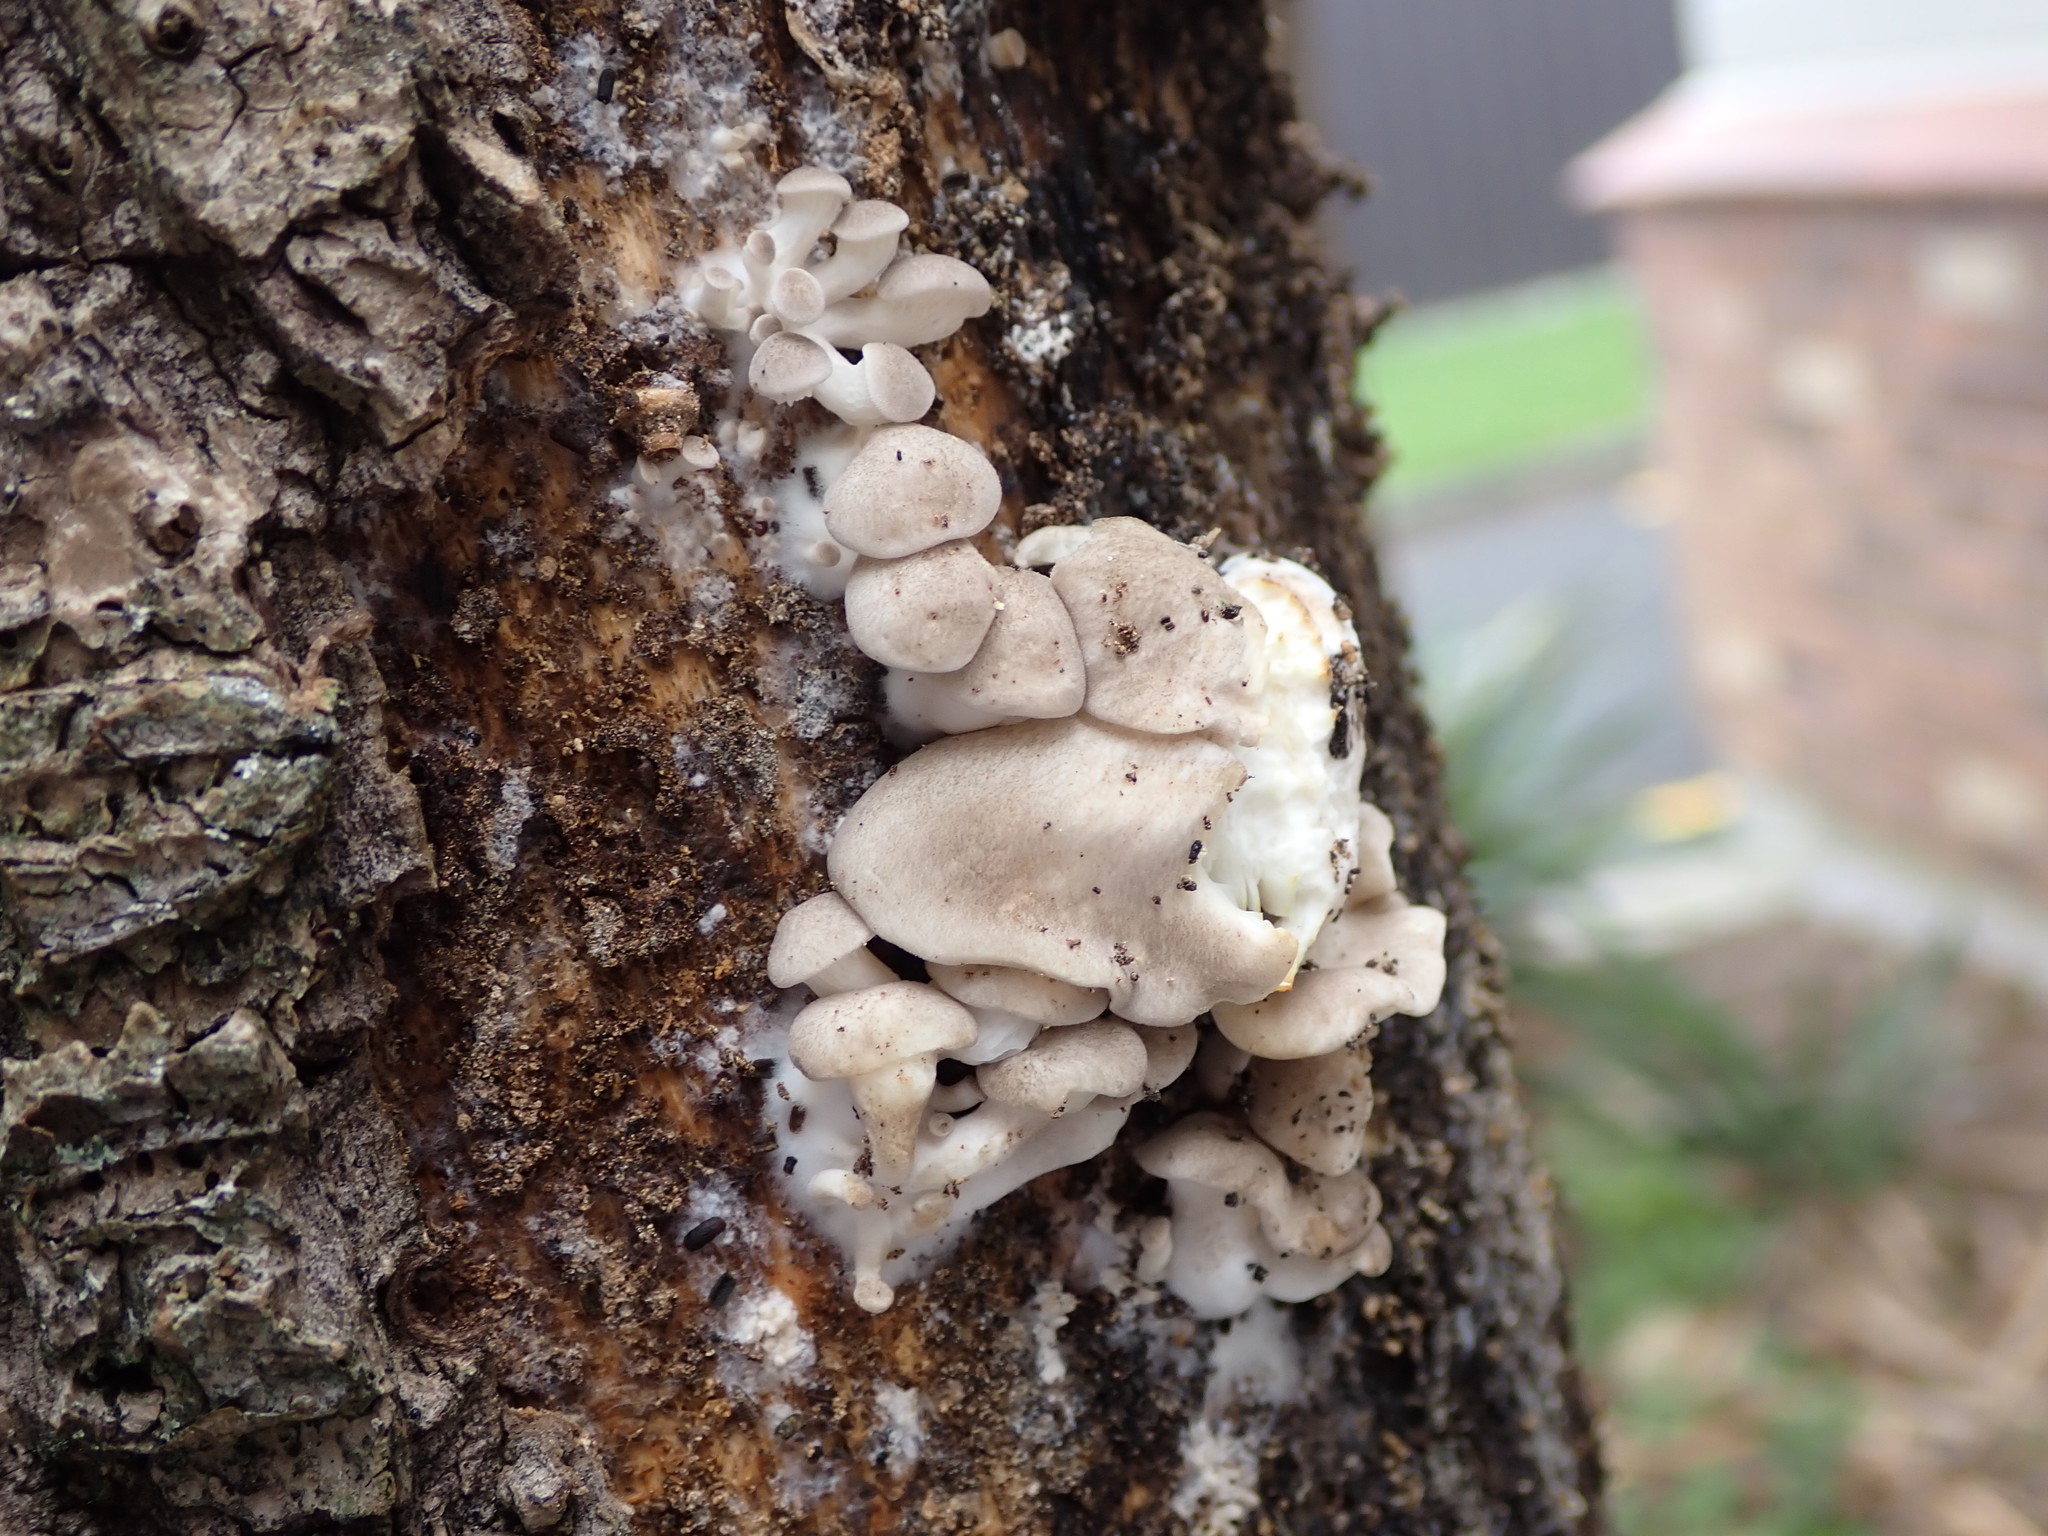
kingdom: Fungi
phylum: Basidiomycota
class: Agaricomycetes
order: Agaricales
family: Pleurotaceae
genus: Pleurotus
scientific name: Pleurotus pulmonarius
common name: Pale oyster
